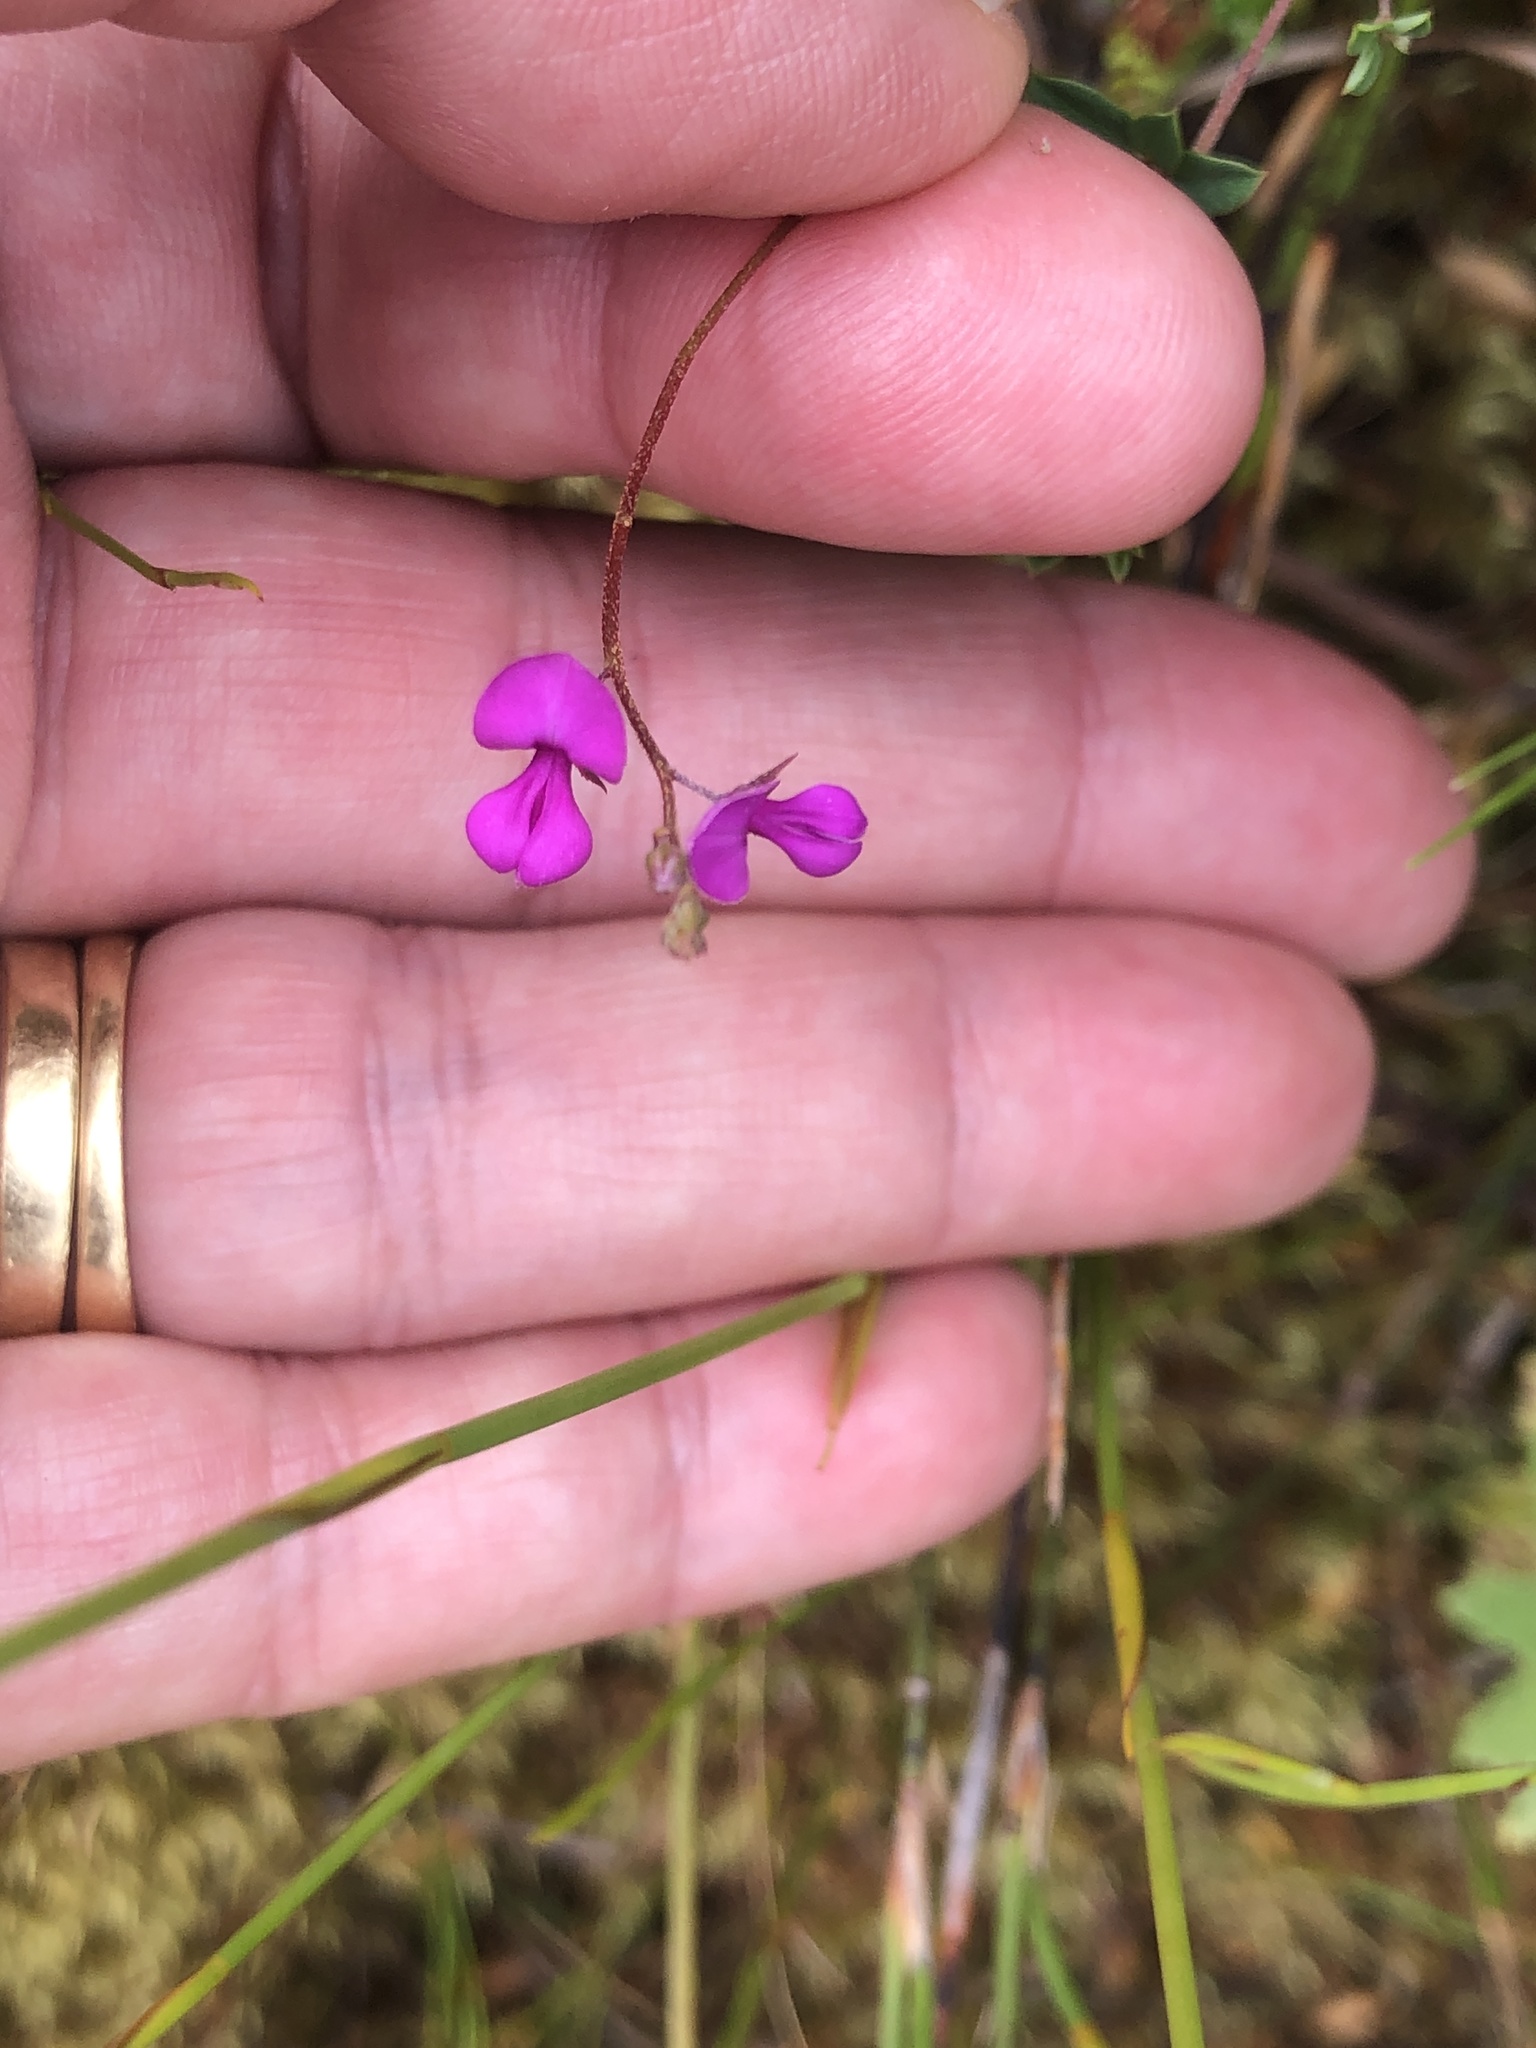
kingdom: Plantae
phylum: Tracheophyta
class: Magnoliopsida
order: Fabales
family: Fabaceae
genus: Indigofera
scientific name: Indigofera sarmentosa
